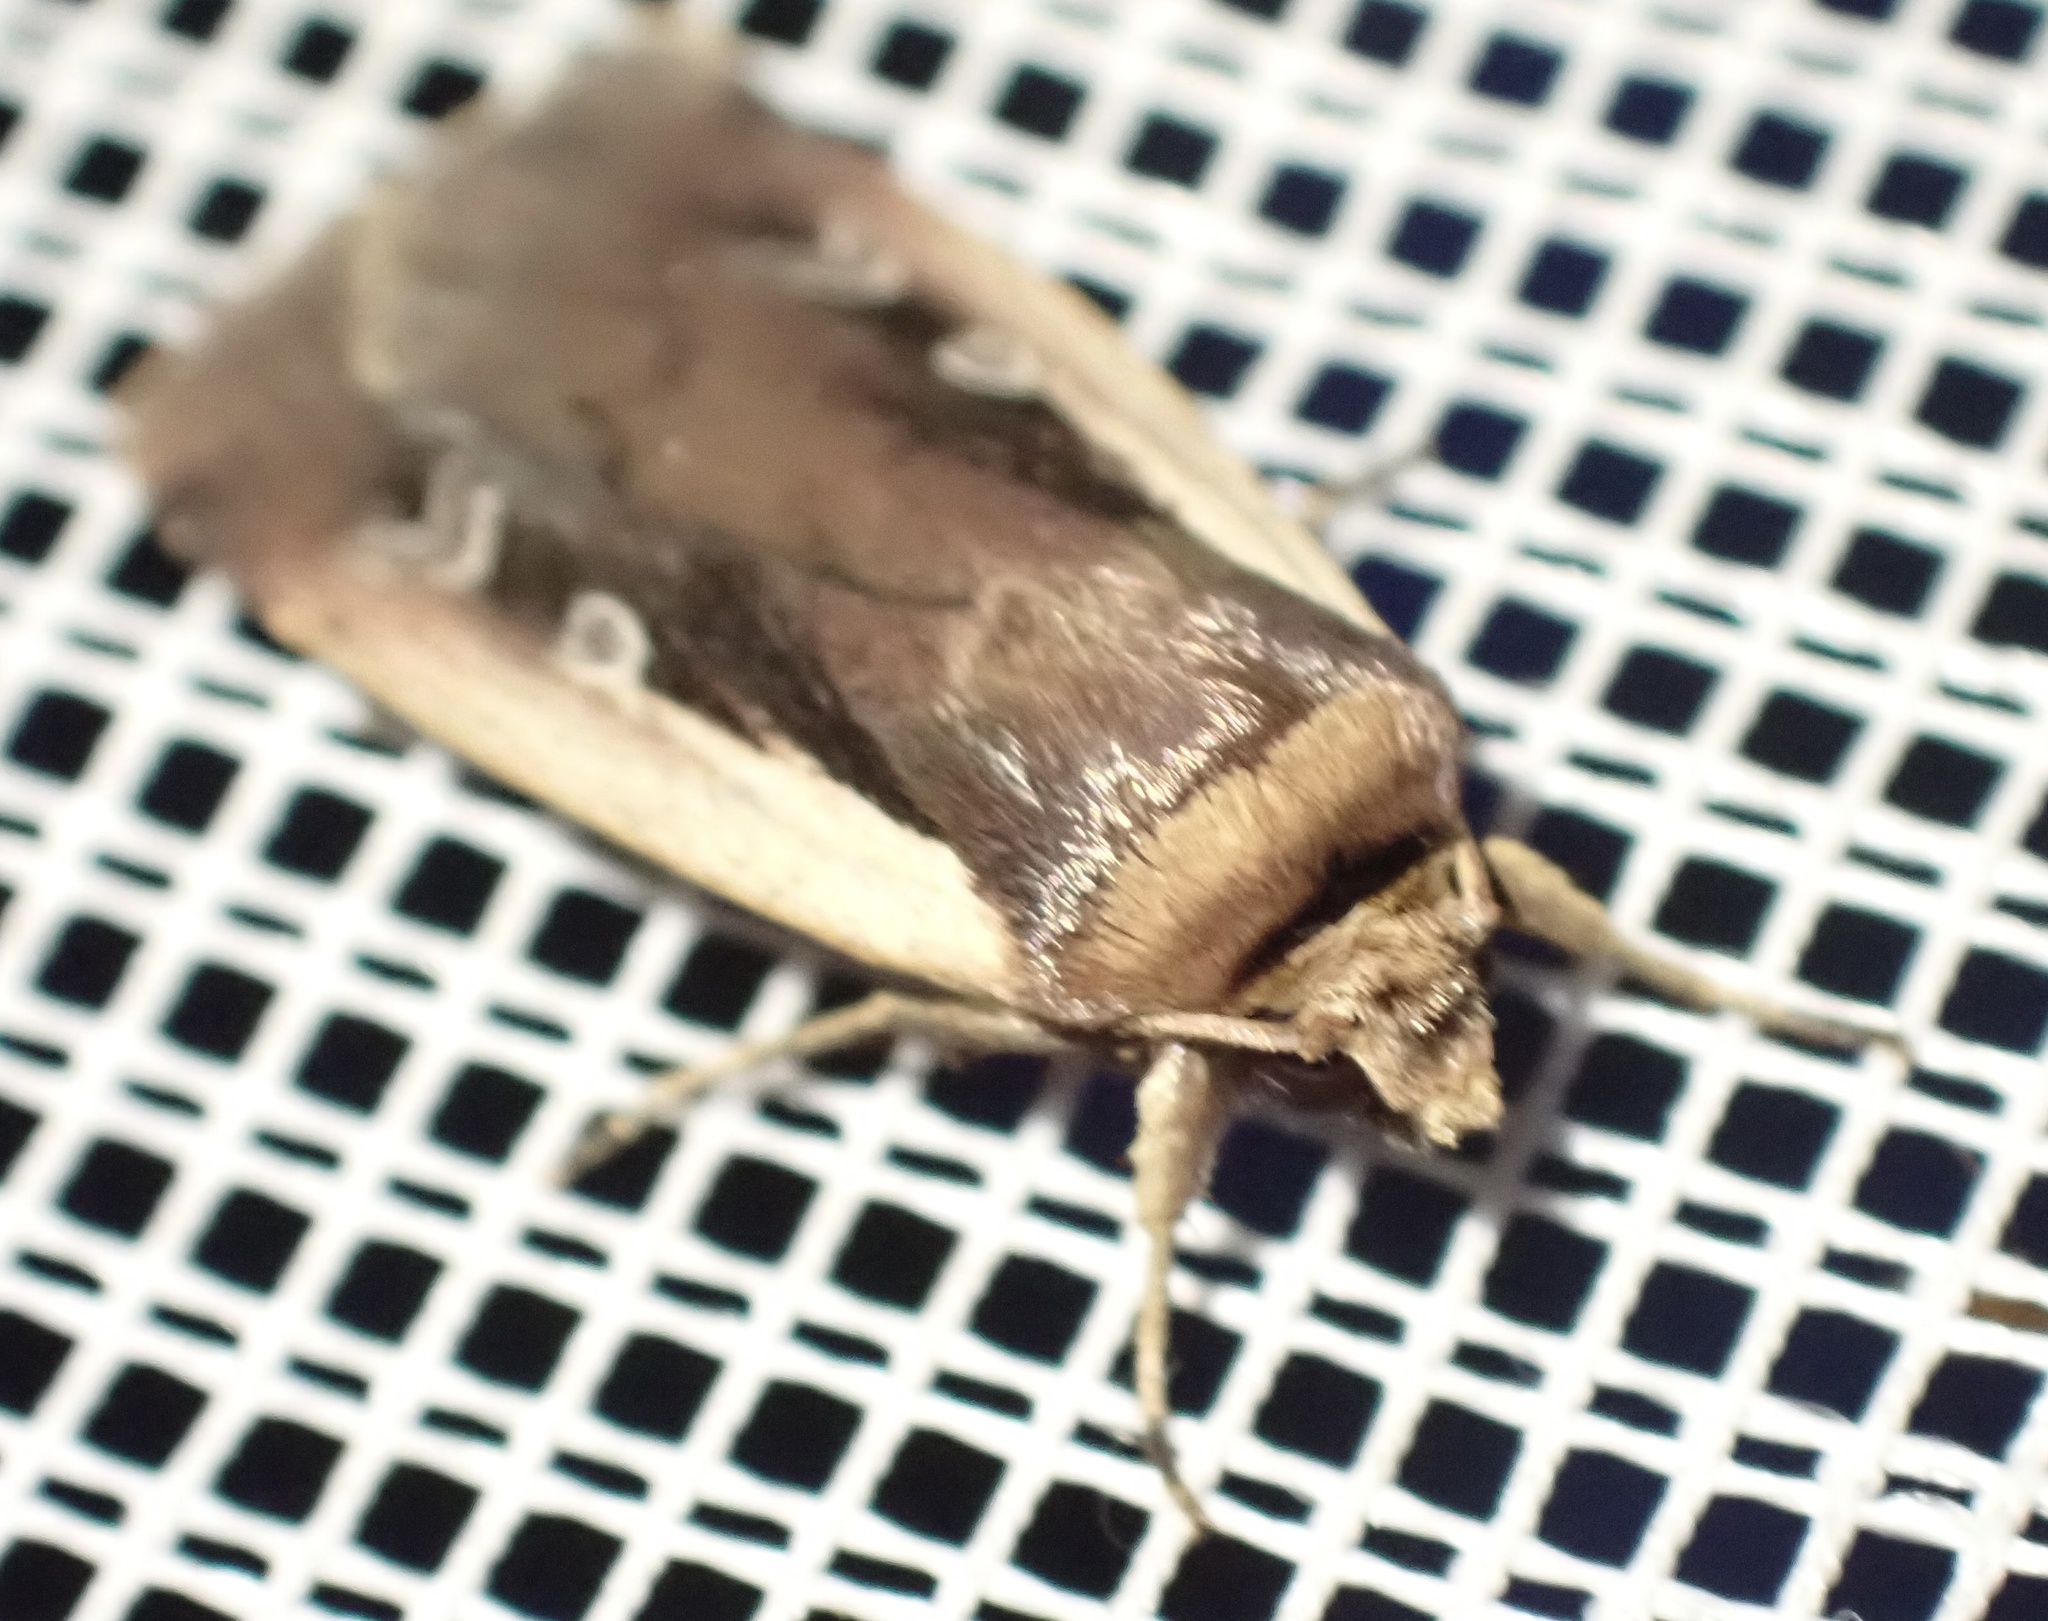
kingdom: Animalia
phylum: Arthropoda
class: Insecta
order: Lepidoptera
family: Noctuidae
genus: Ochropleura
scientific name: Ochropleura plecta
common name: Flame shoulder
